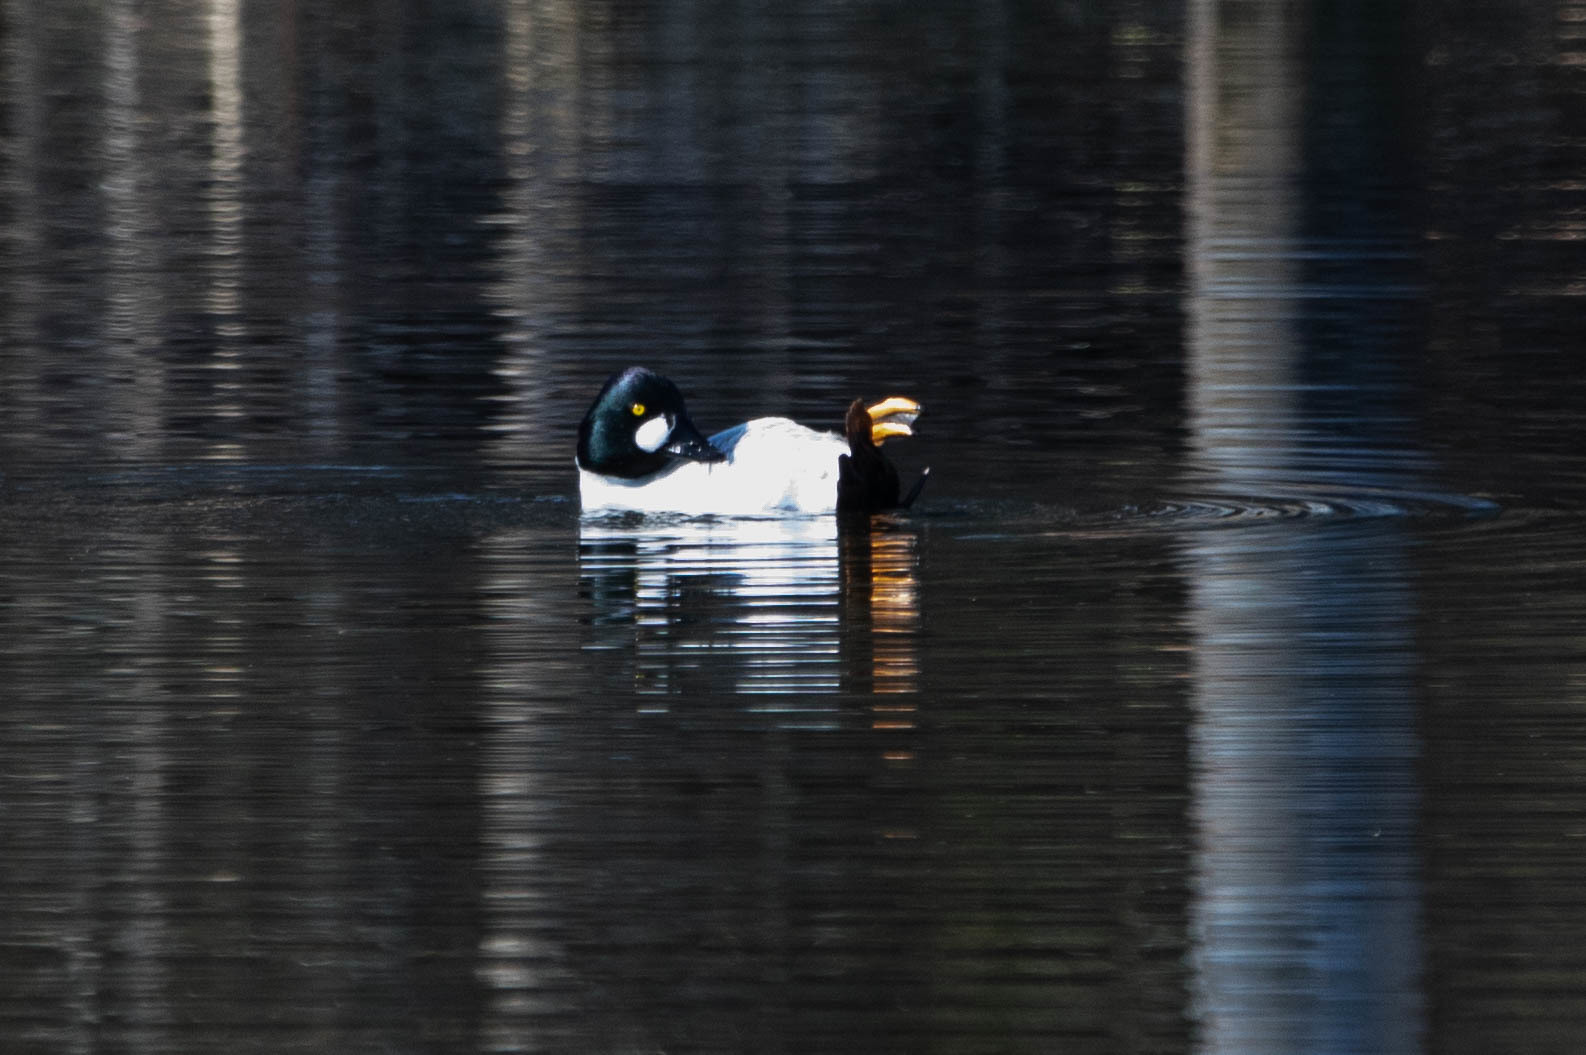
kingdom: Animalia
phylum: Chordata
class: Aves
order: Anseriformes
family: Anatidae
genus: Bucephala
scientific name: Bucephala clangula
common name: Common goldeneye
